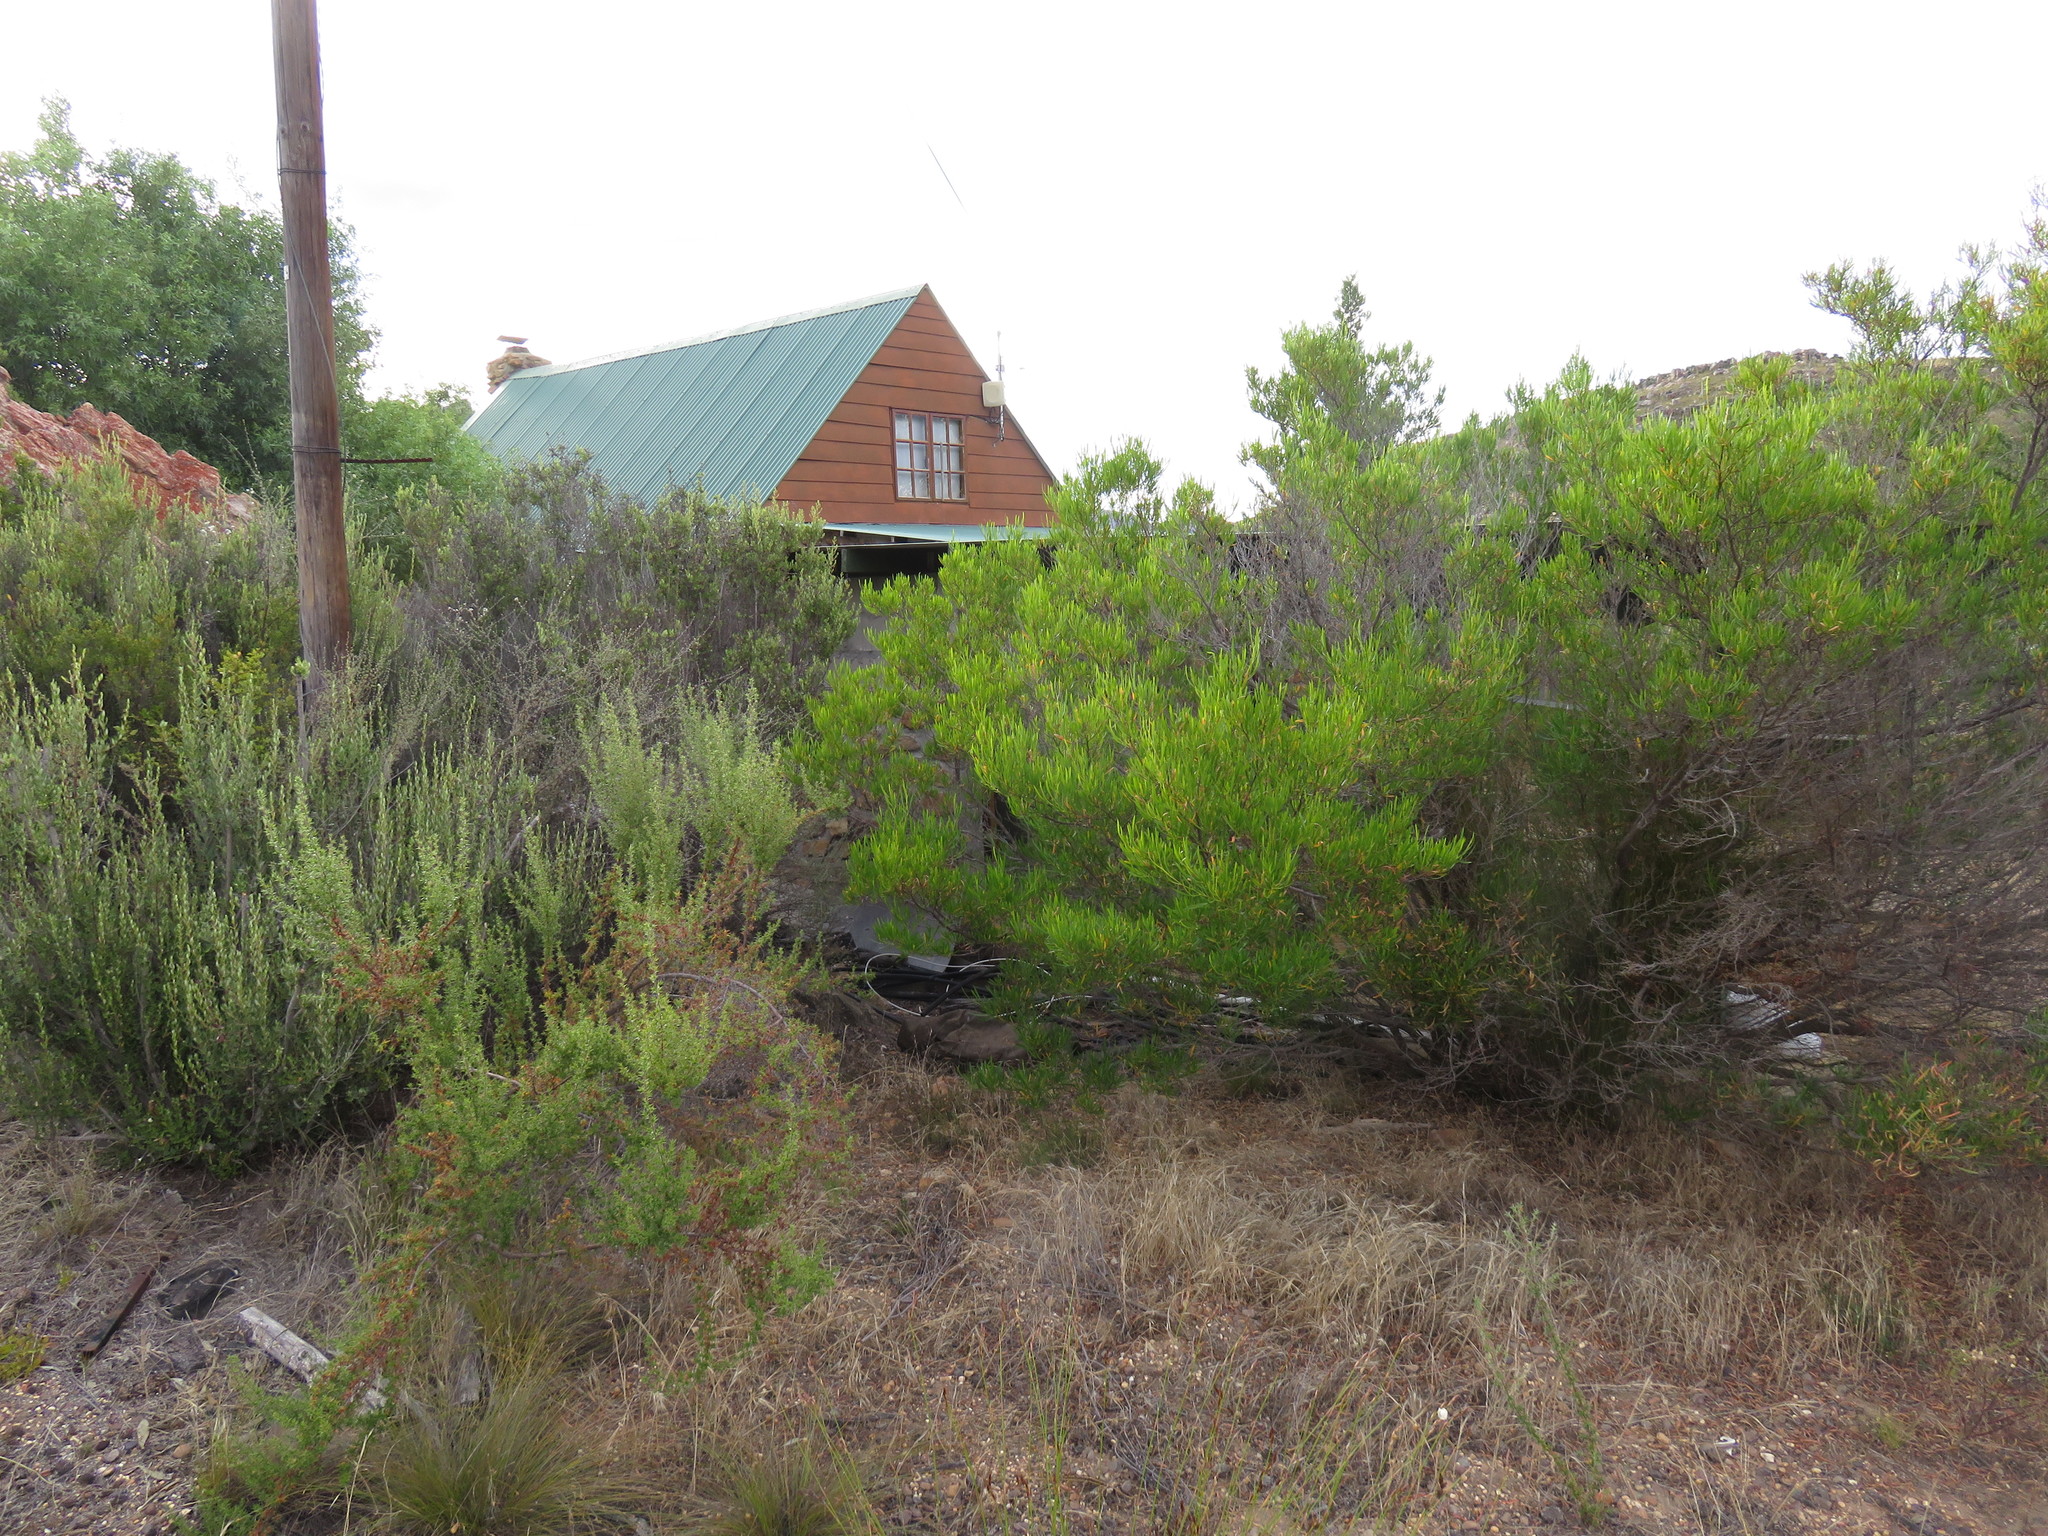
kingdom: Plantae
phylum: Tracheophyta
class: Magnoliopsida
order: Sapindales
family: Sapindaceae
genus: Dodonaea
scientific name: Dodonaea viscosa
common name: Hopbush
